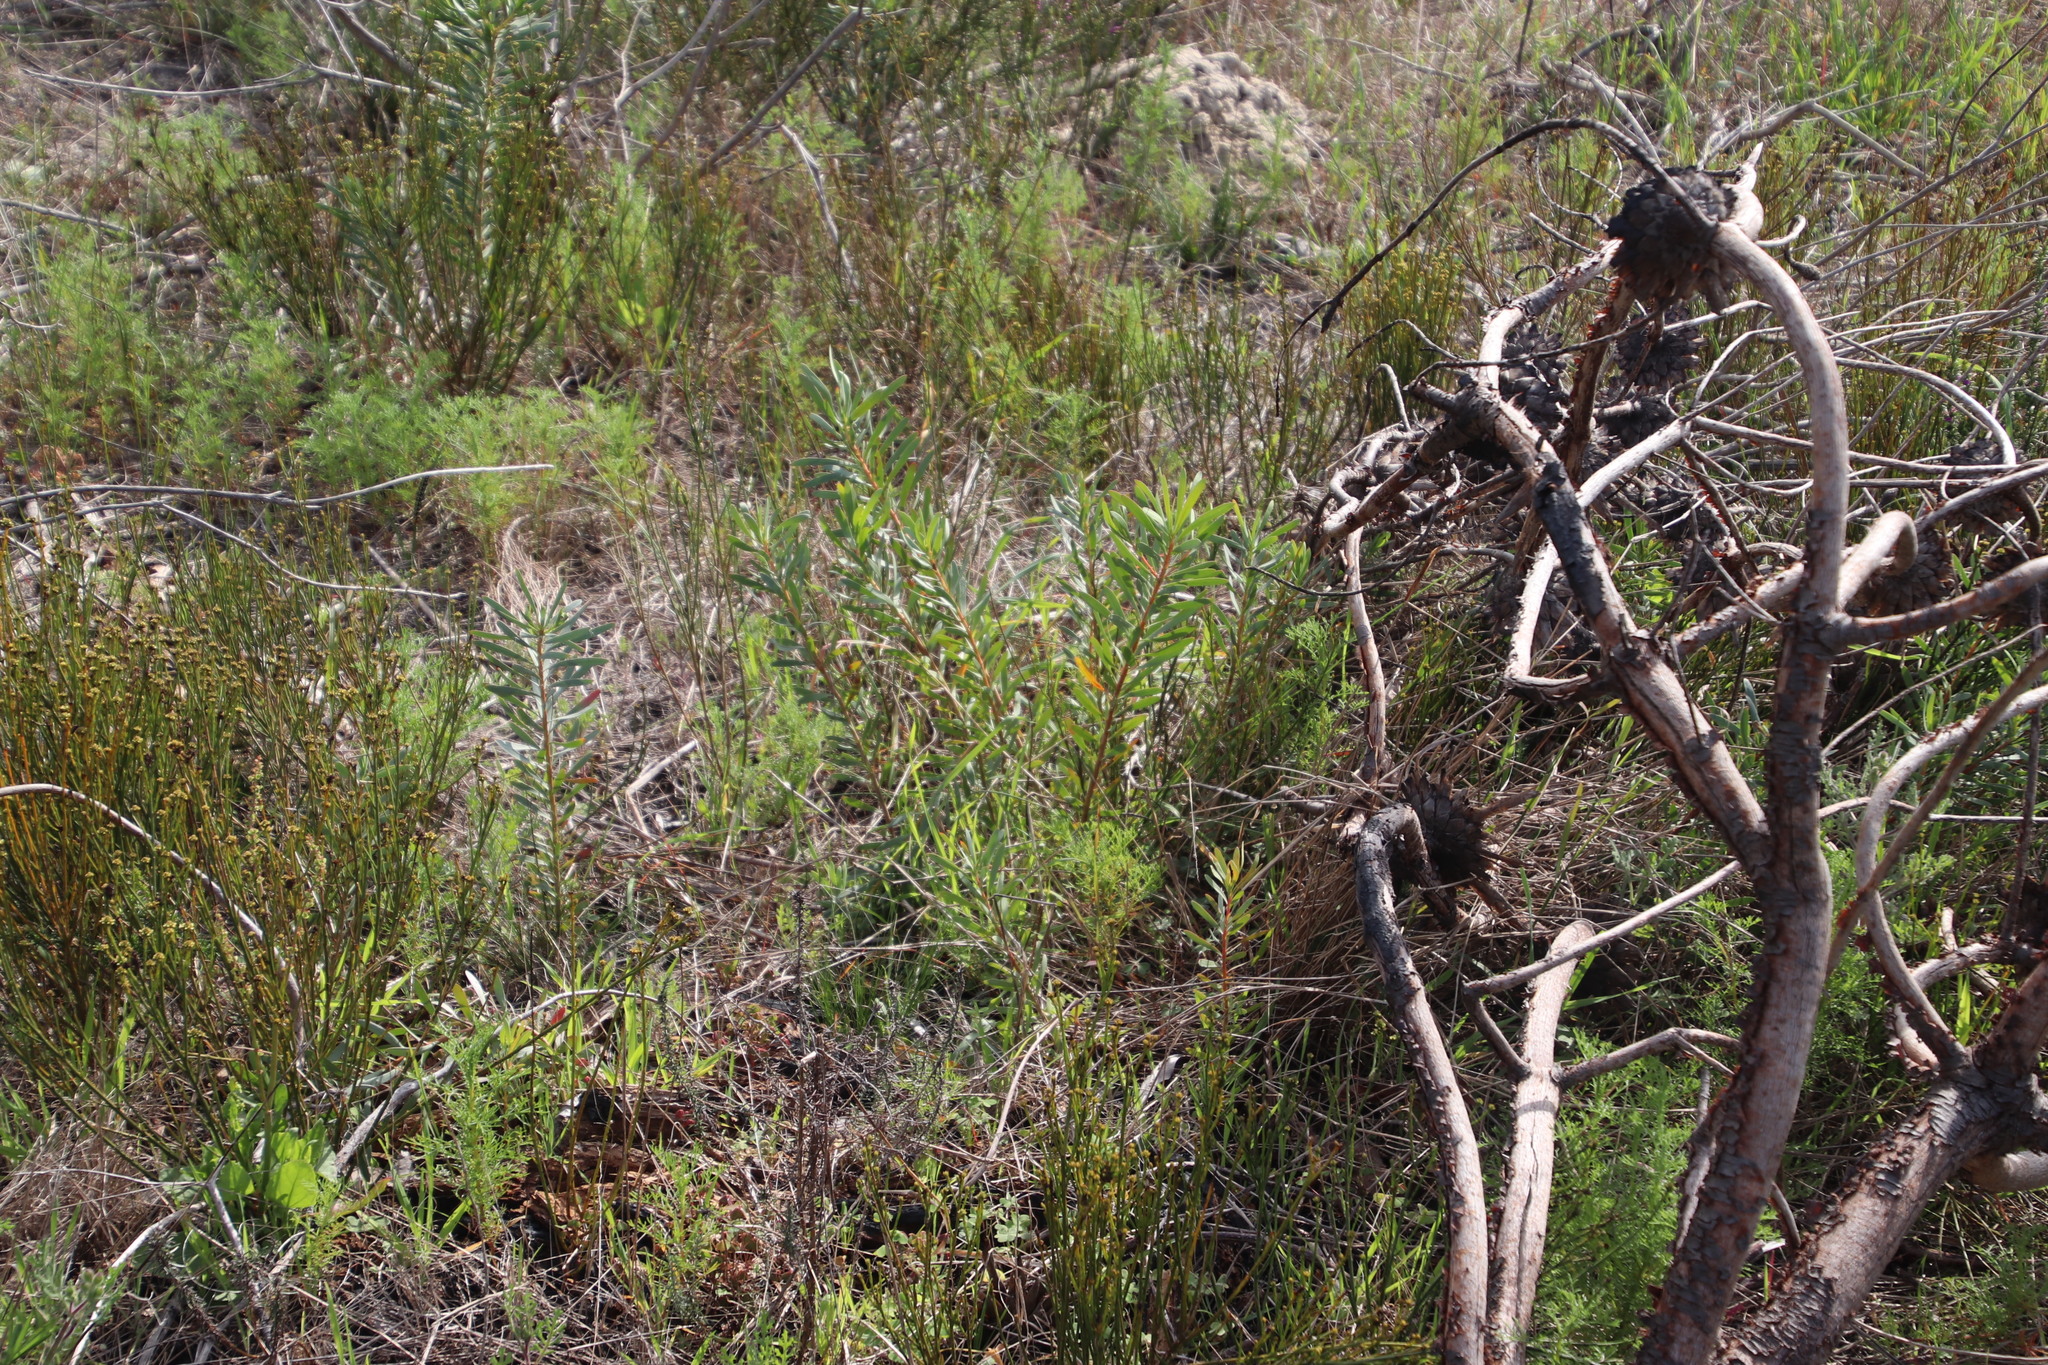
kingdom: Plantae
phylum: Tracheophyta
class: Magnoliopsida
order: Proteales
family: Proteaceae
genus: Protea
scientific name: Protea repens
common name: Sugarbush
